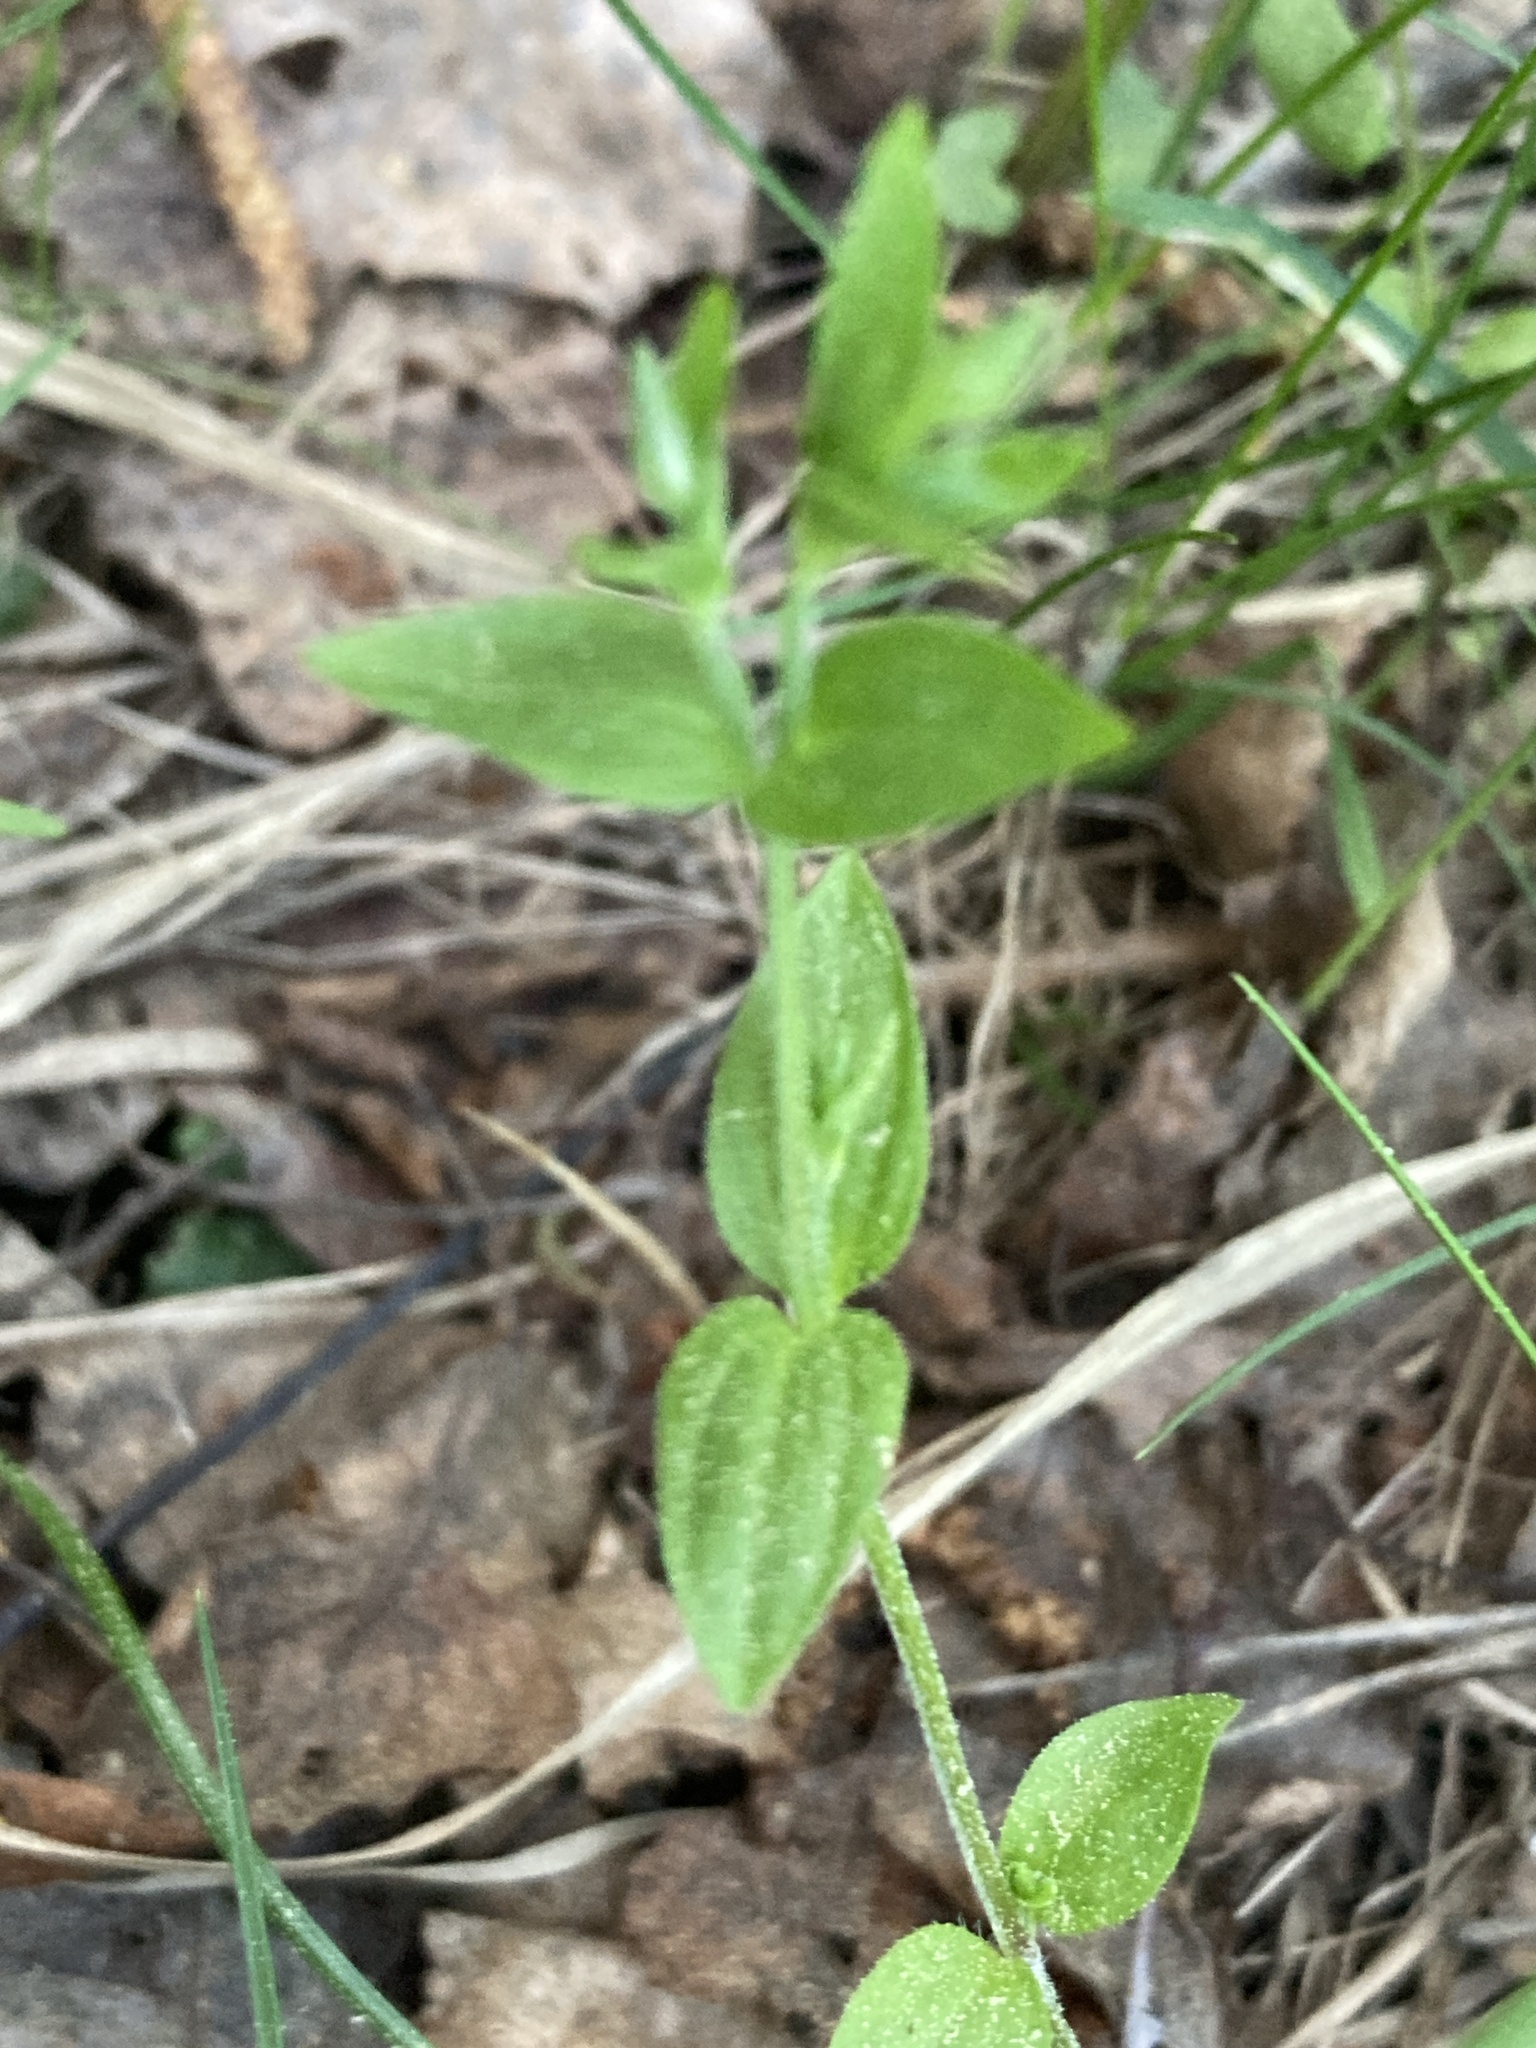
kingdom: Plantae
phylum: Tracheophyta
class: Magnoliopsida
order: Caryophyllales
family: Caryophyllaceae
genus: Moehringia
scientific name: Moehringia trinervia
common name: Three-nerved sandwort
